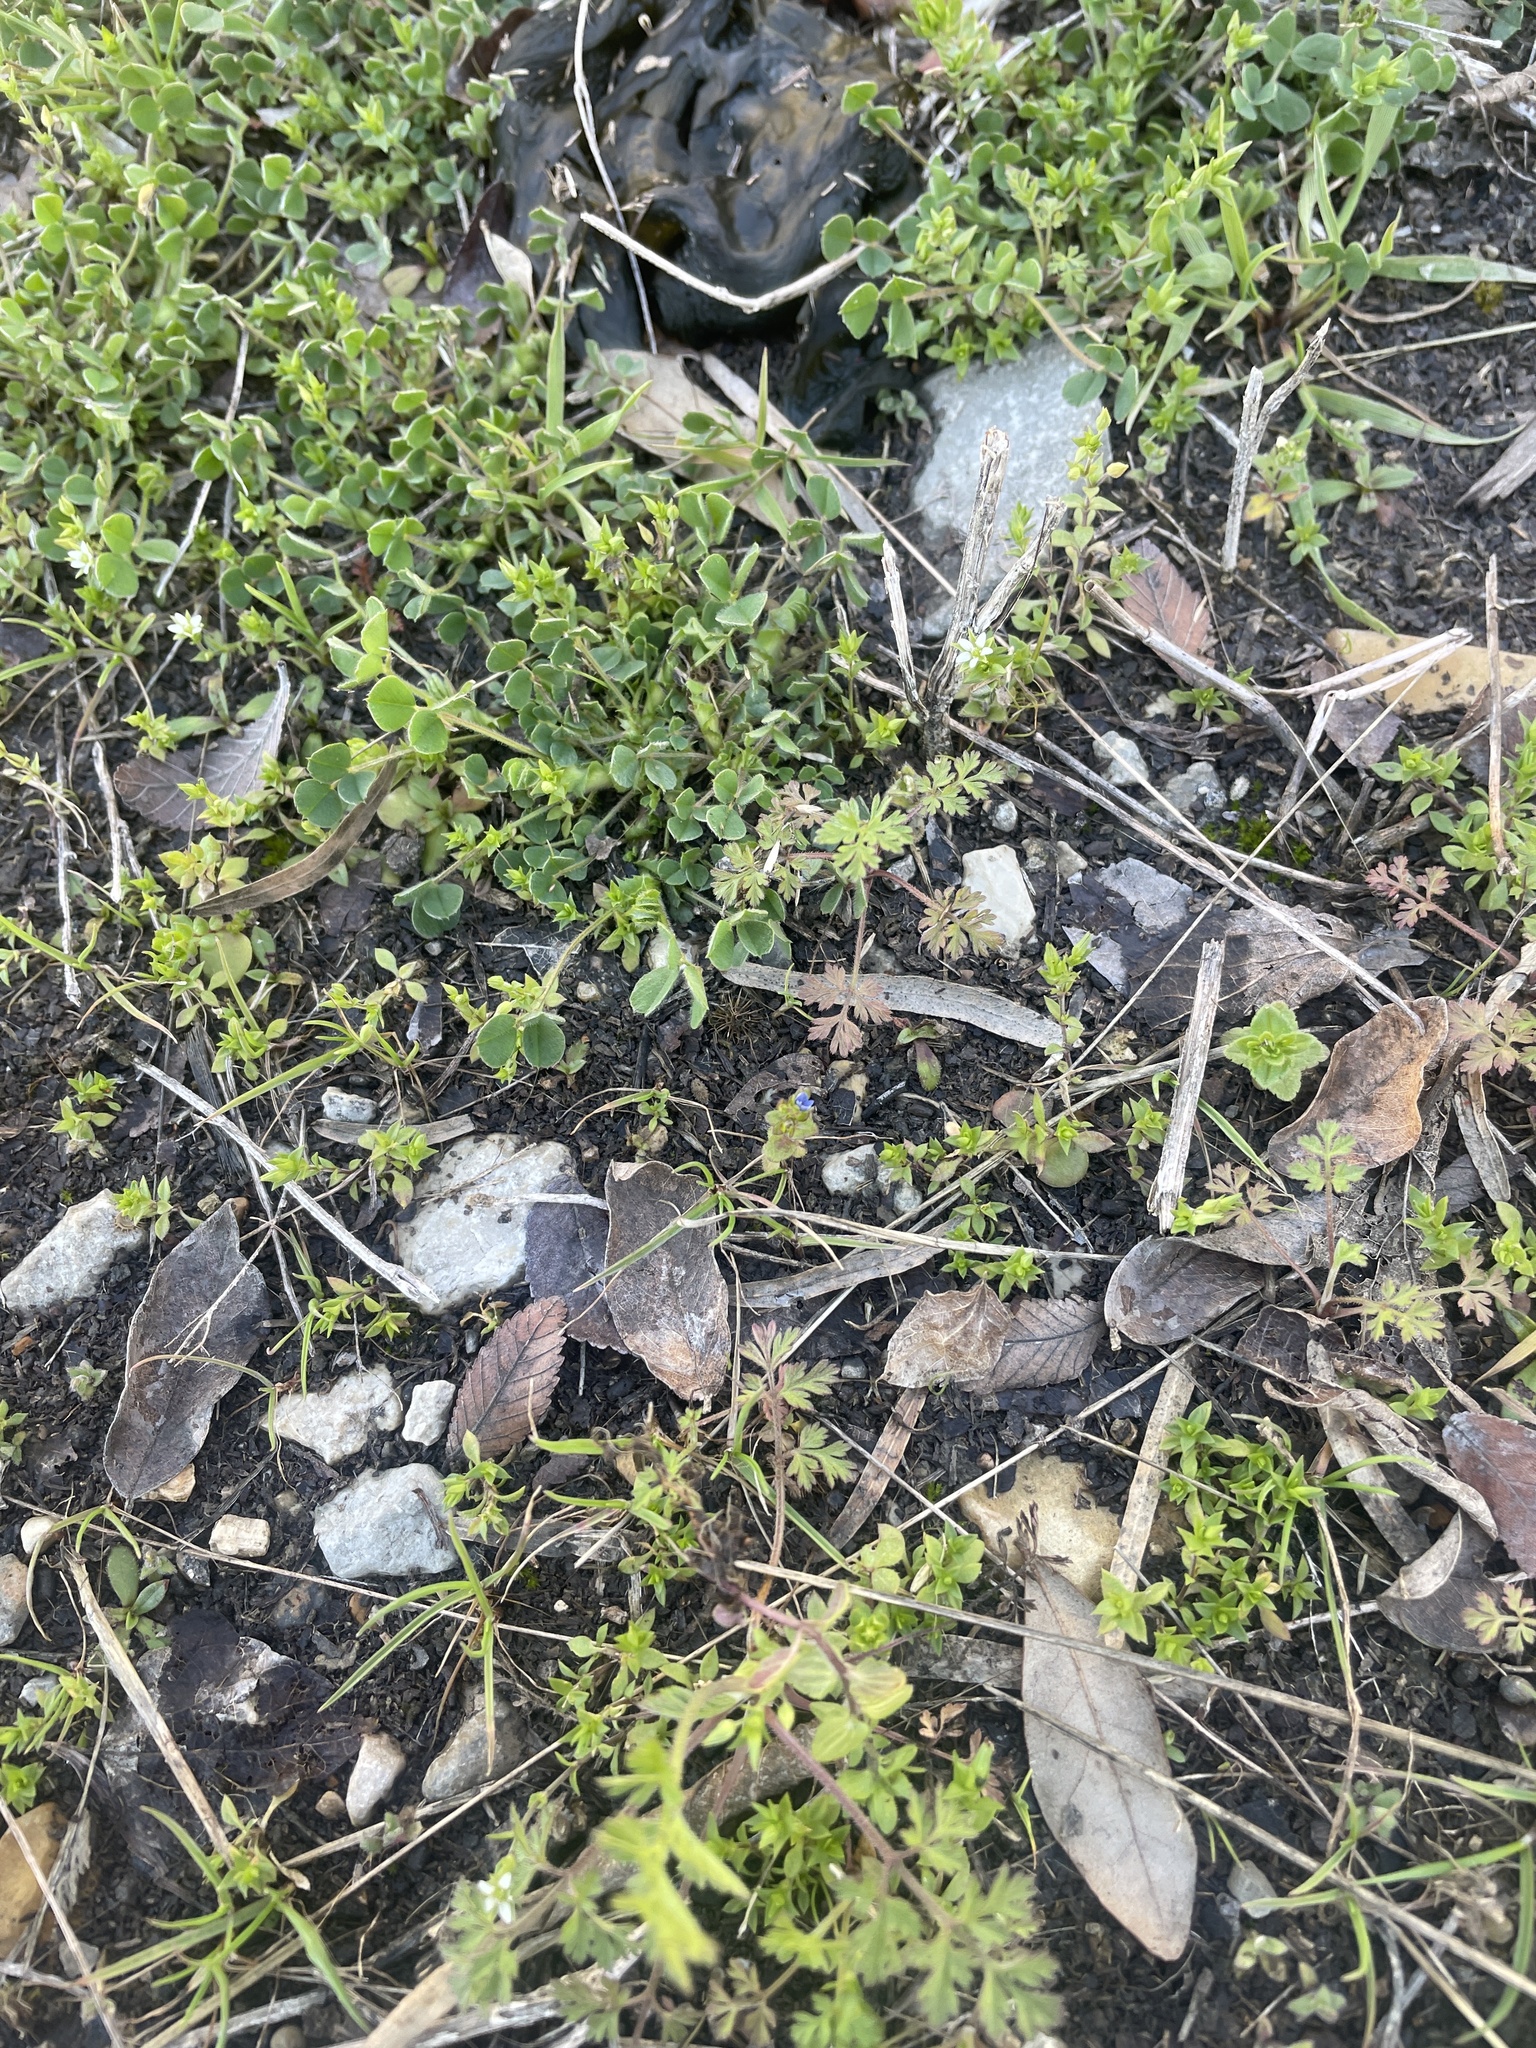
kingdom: Plantae
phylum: Tracheophyta
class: Magnoliopsida
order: Lamiales
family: Plantaginaceae
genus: Veronica
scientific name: Veronica arvensis
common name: Corn speedwell
